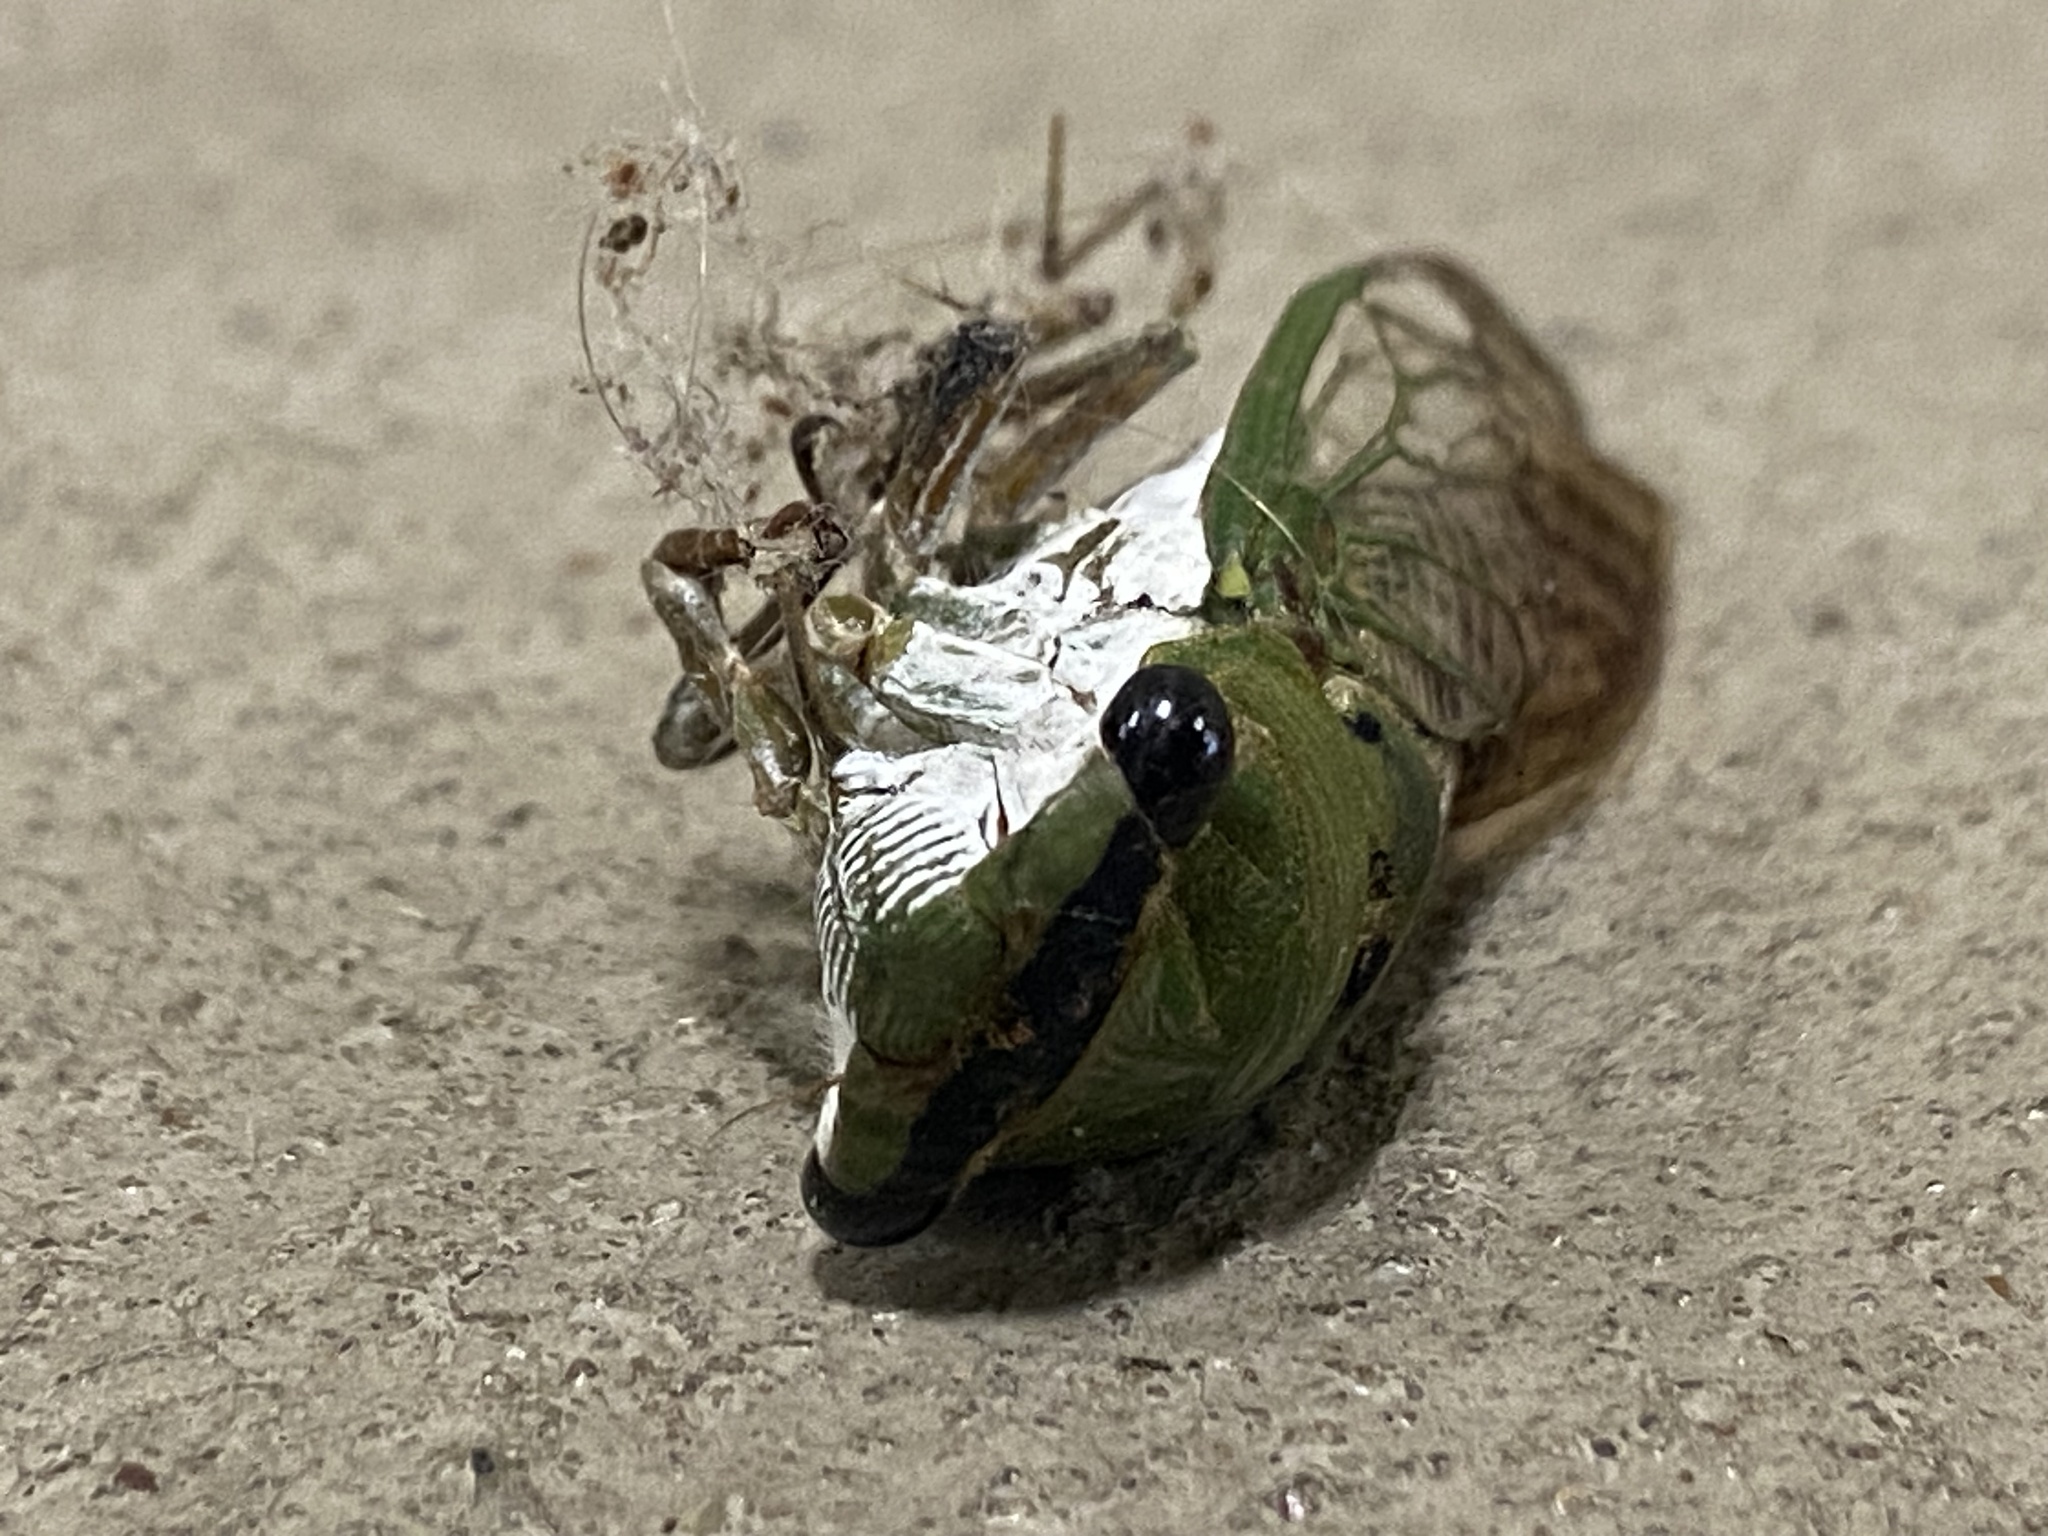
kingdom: Animalia
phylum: Arthropoda
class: Insecta
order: Hemiptera
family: Cicadidae
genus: Neotibicen
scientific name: Neotibicen superbus
